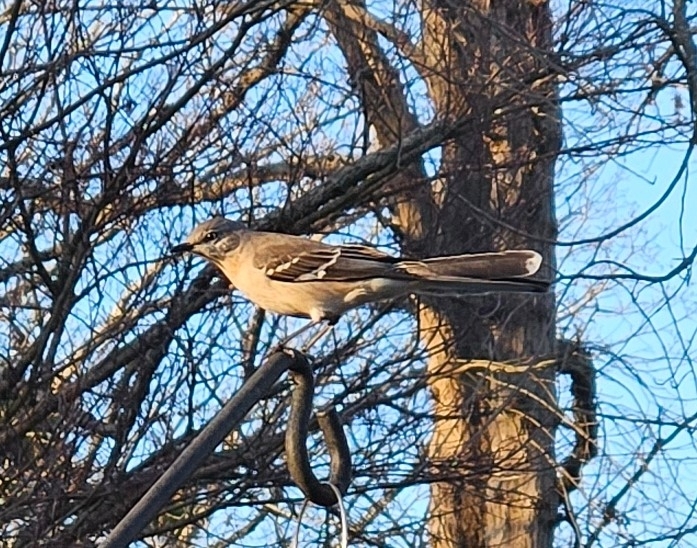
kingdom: Animalia
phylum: Chordata
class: Aves
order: Passeriformes
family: Mimidae
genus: Mimus
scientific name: Mimus polyglottos
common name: Northern mockingbird
